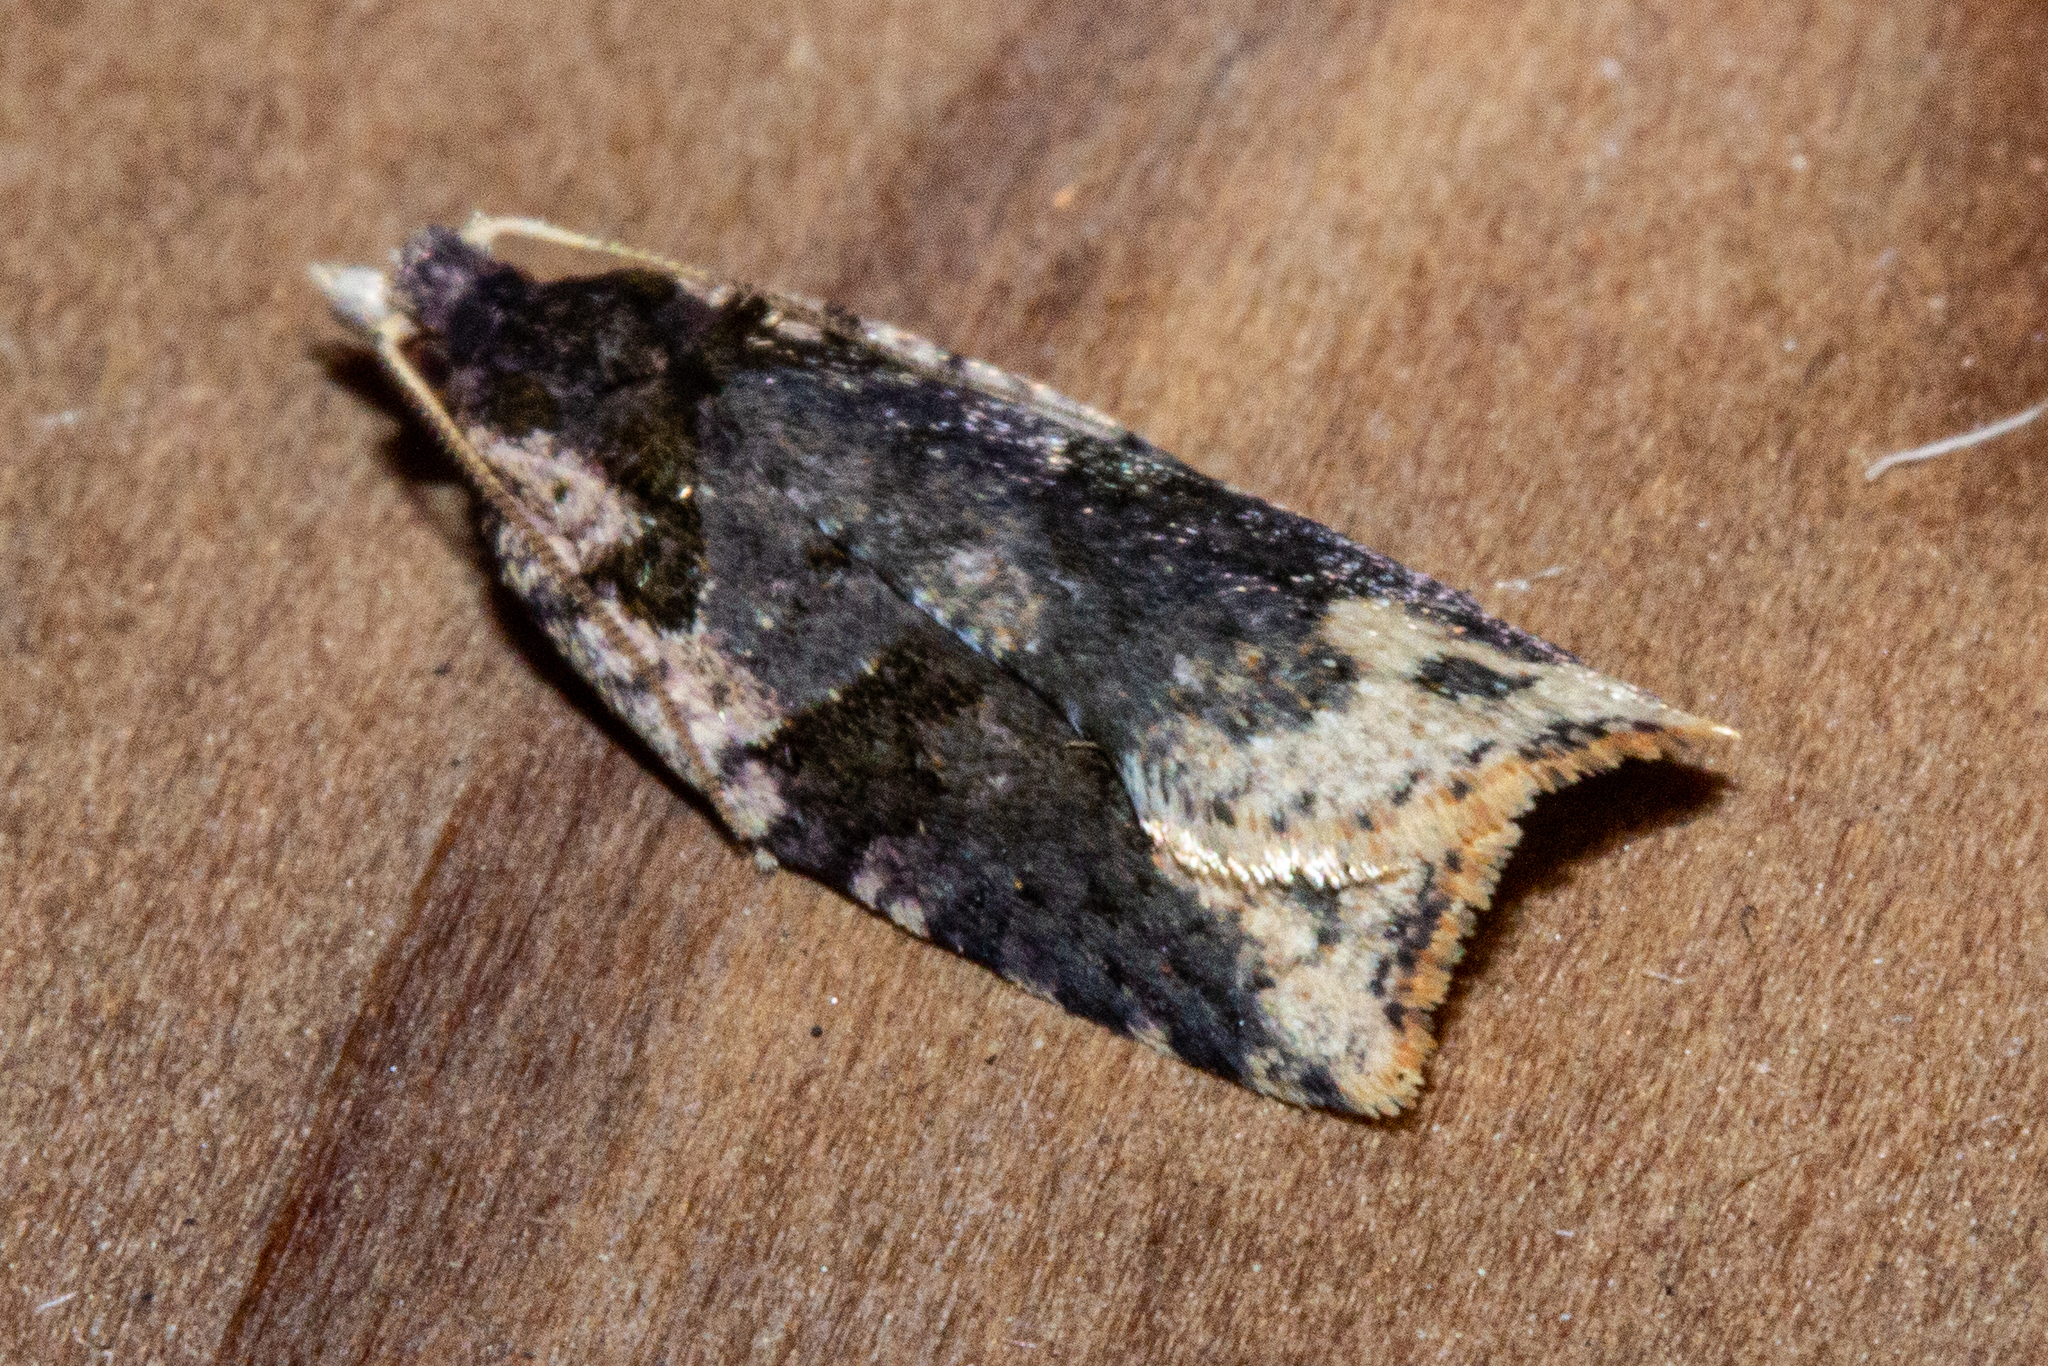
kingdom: Animalia
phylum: Arthropoda
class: Insecta
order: Lepidoptera
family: Tortricidae
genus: Ctenopseustis
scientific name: Ctenopseustis obliquana
